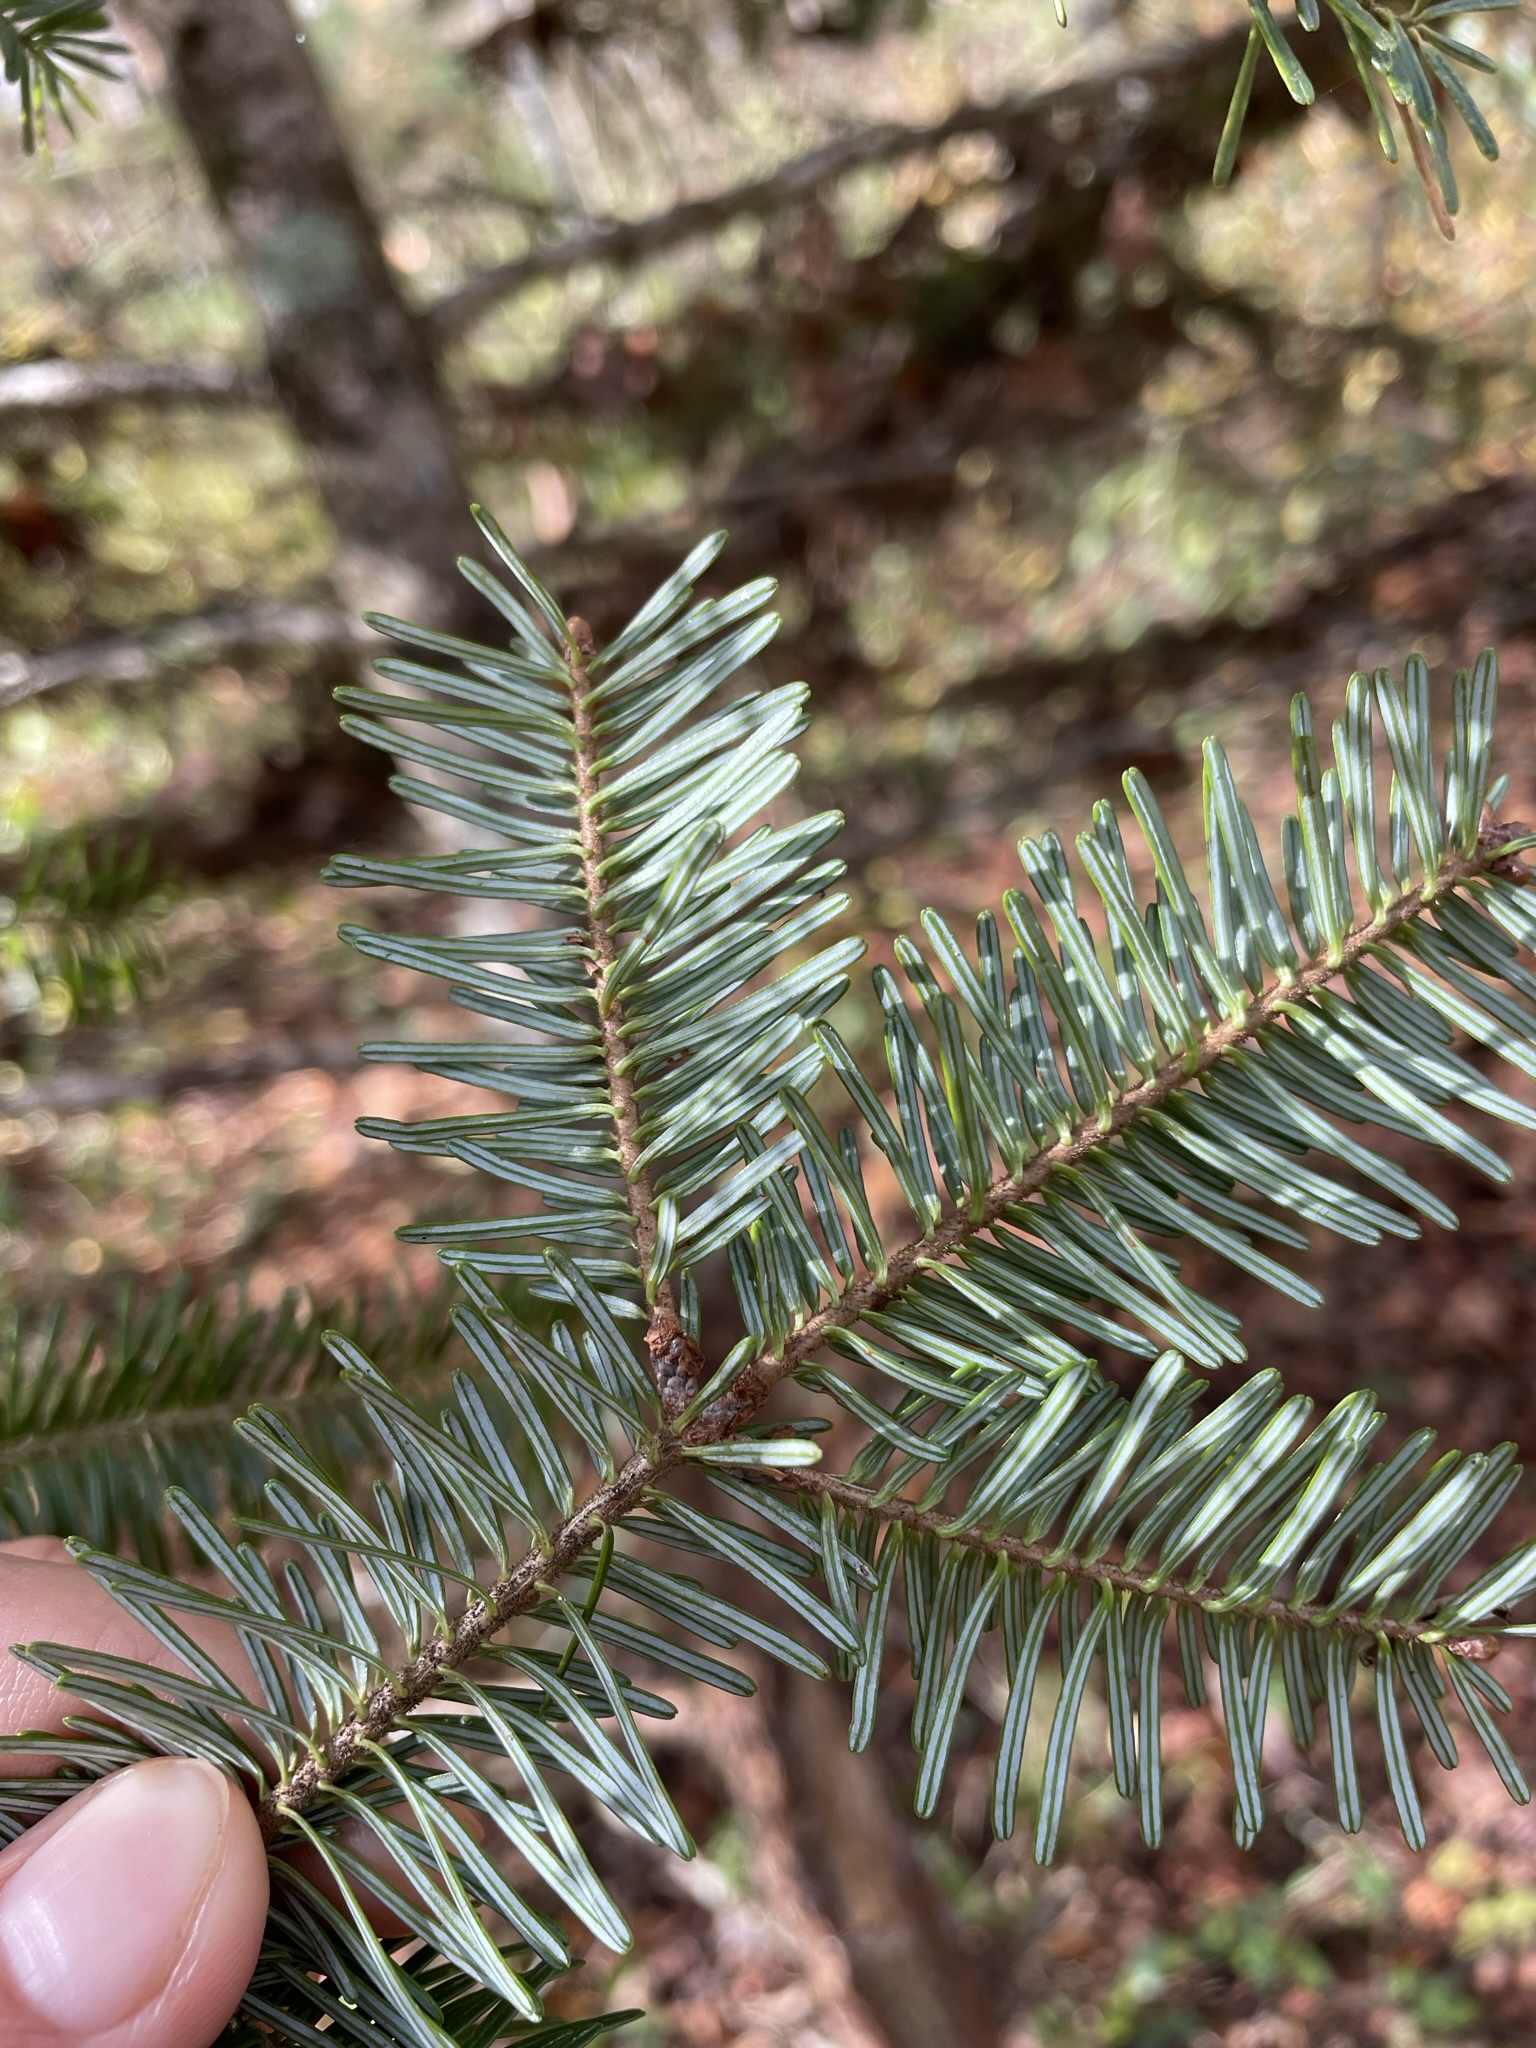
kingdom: Plantae
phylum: Tracheophyta
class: Pinopsida
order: Pinales
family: Pinaceae
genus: Abies
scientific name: Abies fraseri
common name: Fraser fir
